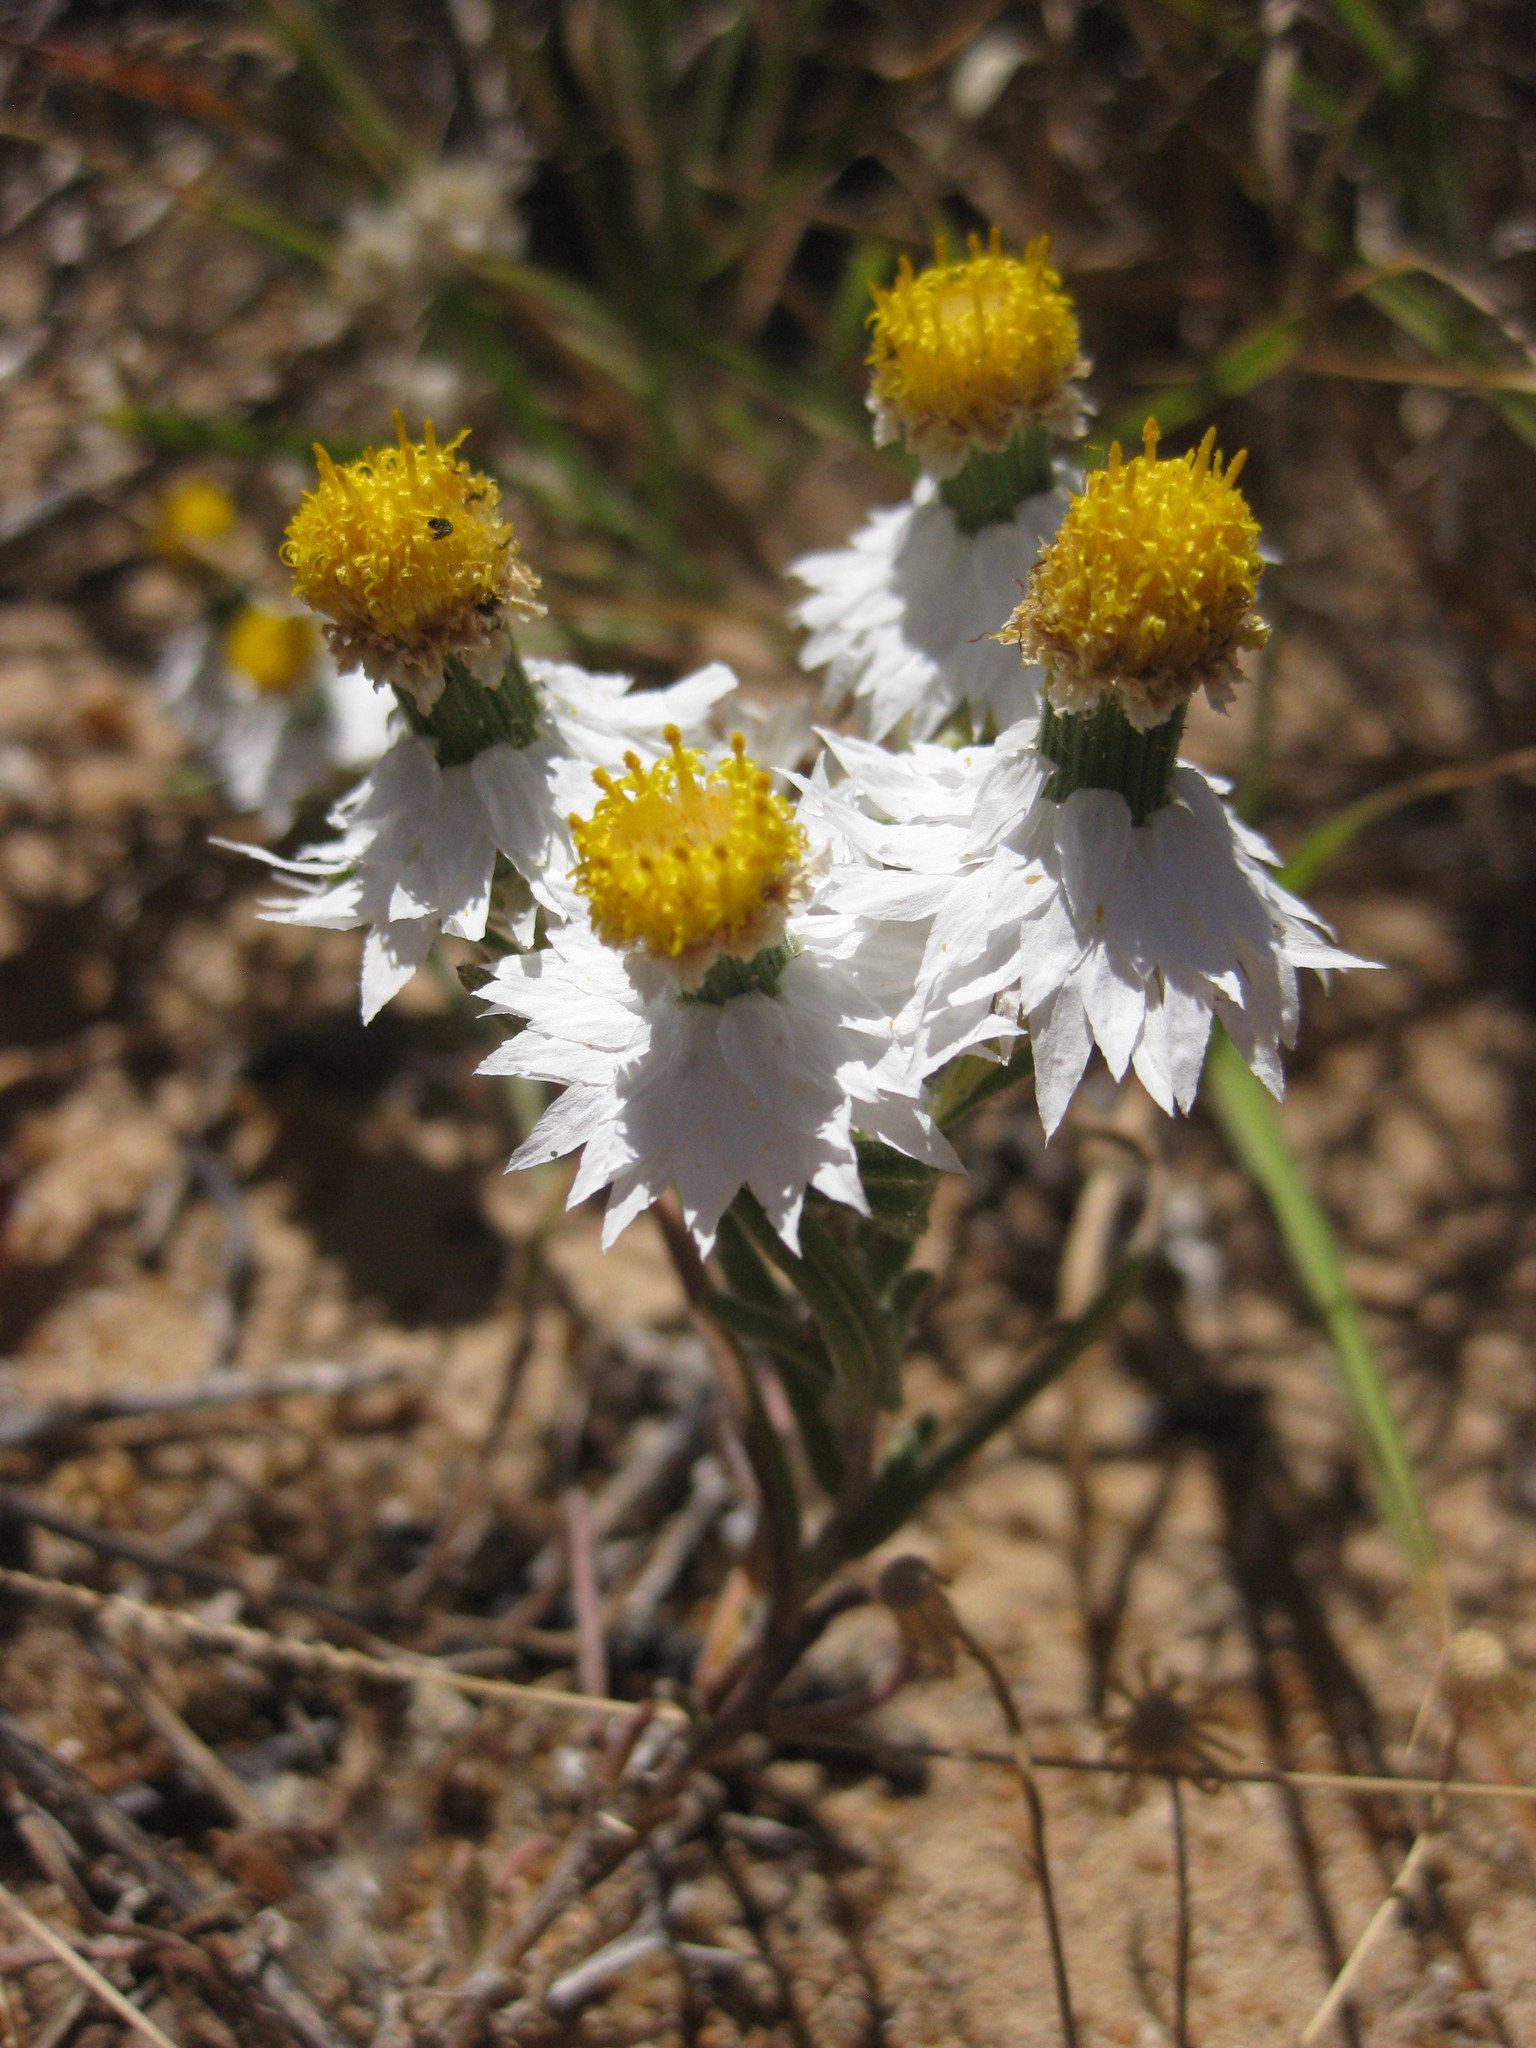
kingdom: Plantae
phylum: Tracheophyta
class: Magnoliopsida
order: Asterales
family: Asteraceae
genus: Waitzia
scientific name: Waitzia corymbosa
